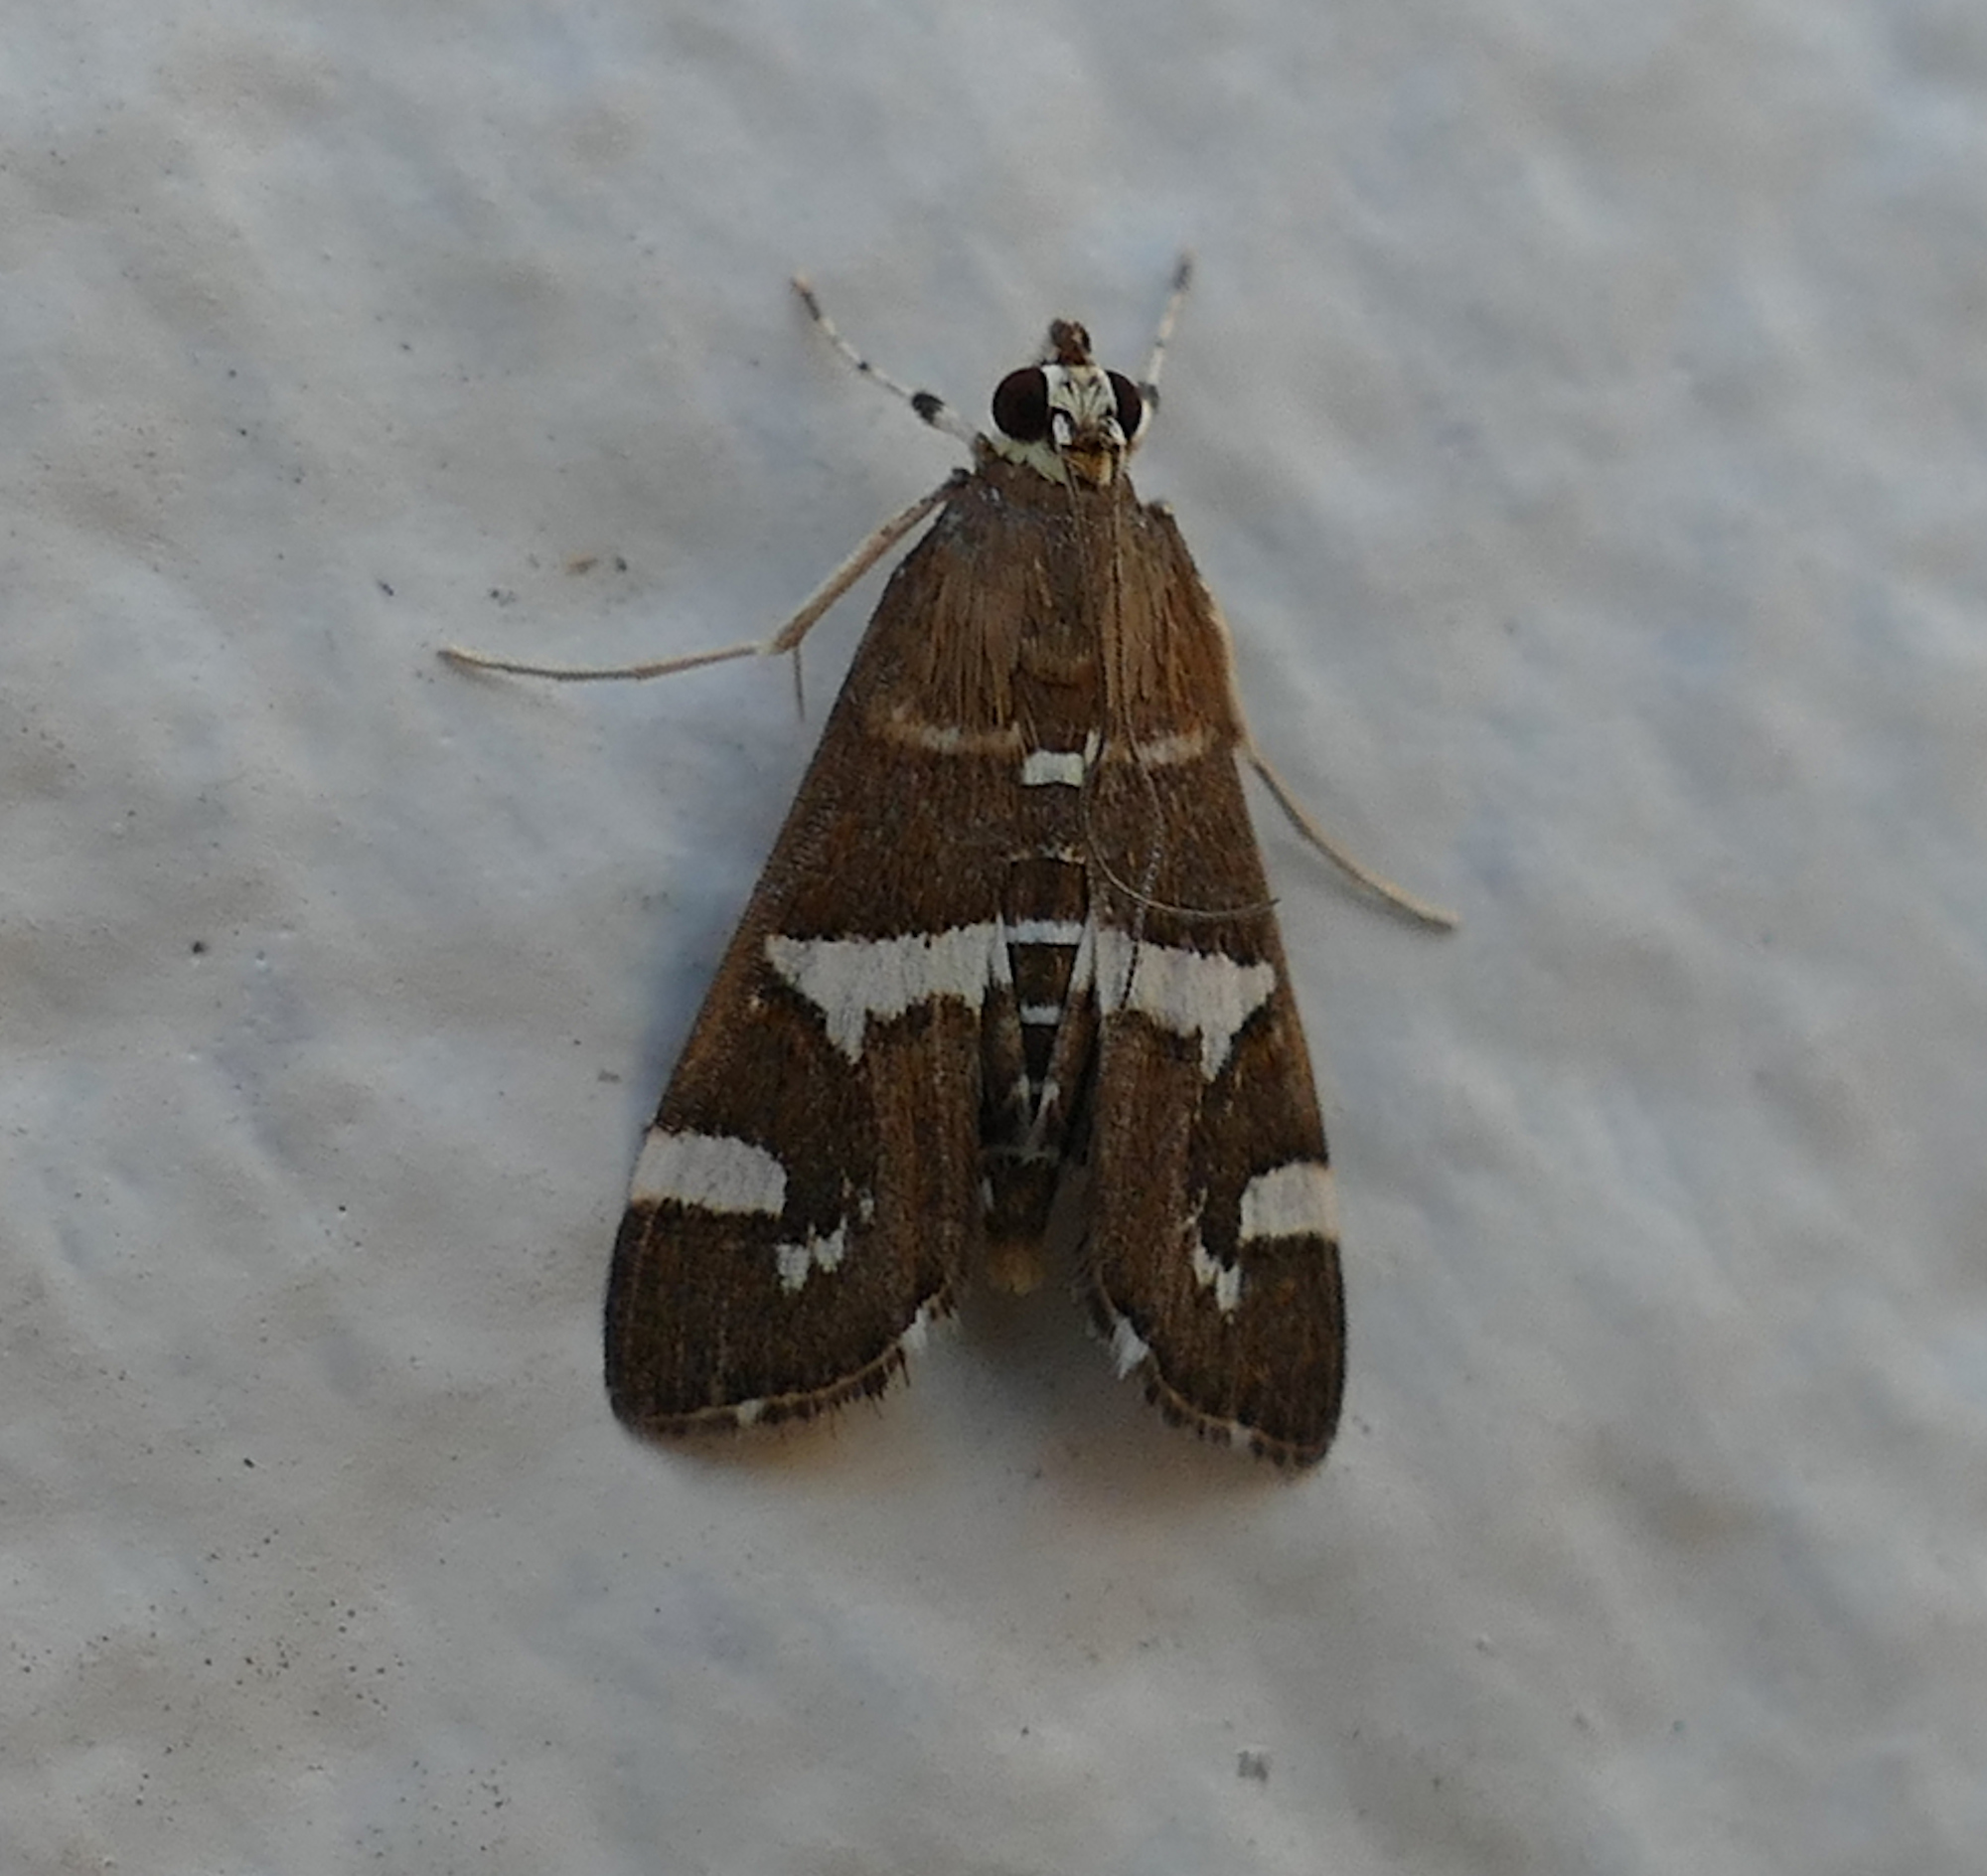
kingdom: Animalia
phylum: Arthropoda
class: Insecta
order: Lepidoptera
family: Crambidae
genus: Spoladea
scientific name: Spoladea recurvalis
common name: Beet webworm moth
